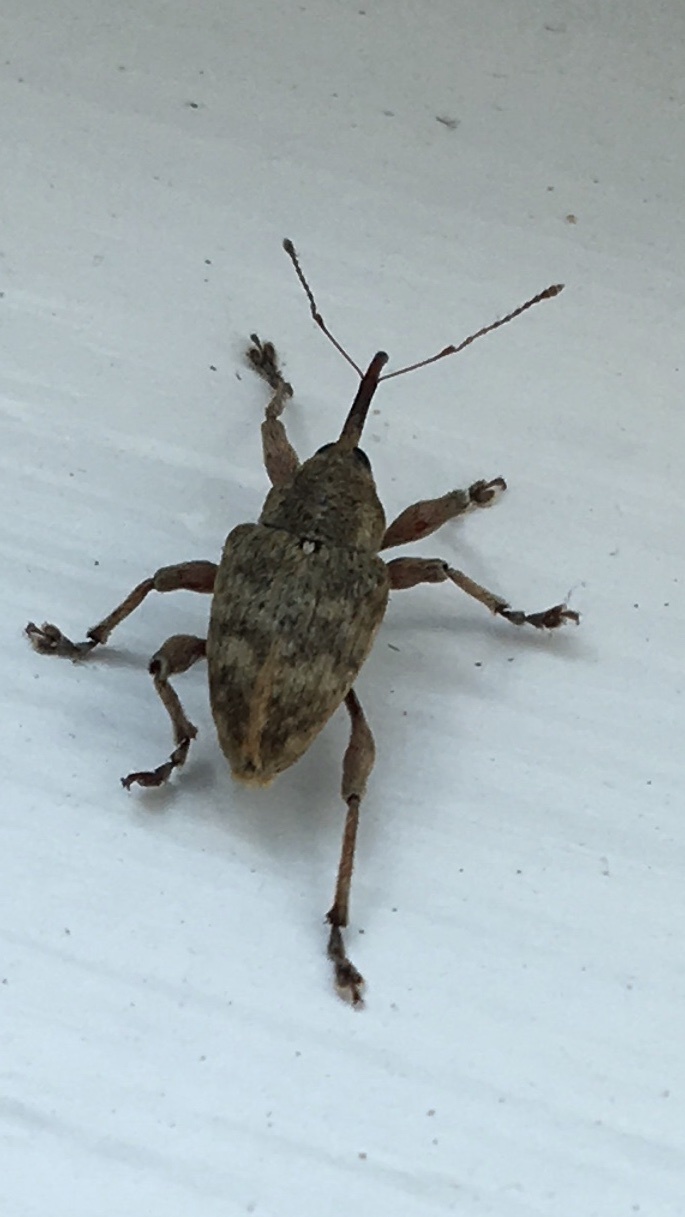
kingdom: Animalia
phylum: Arthropoda
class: Insecta
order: Coleoptera
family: Curculionidae
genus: Curculio
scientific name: Curculio venosus
